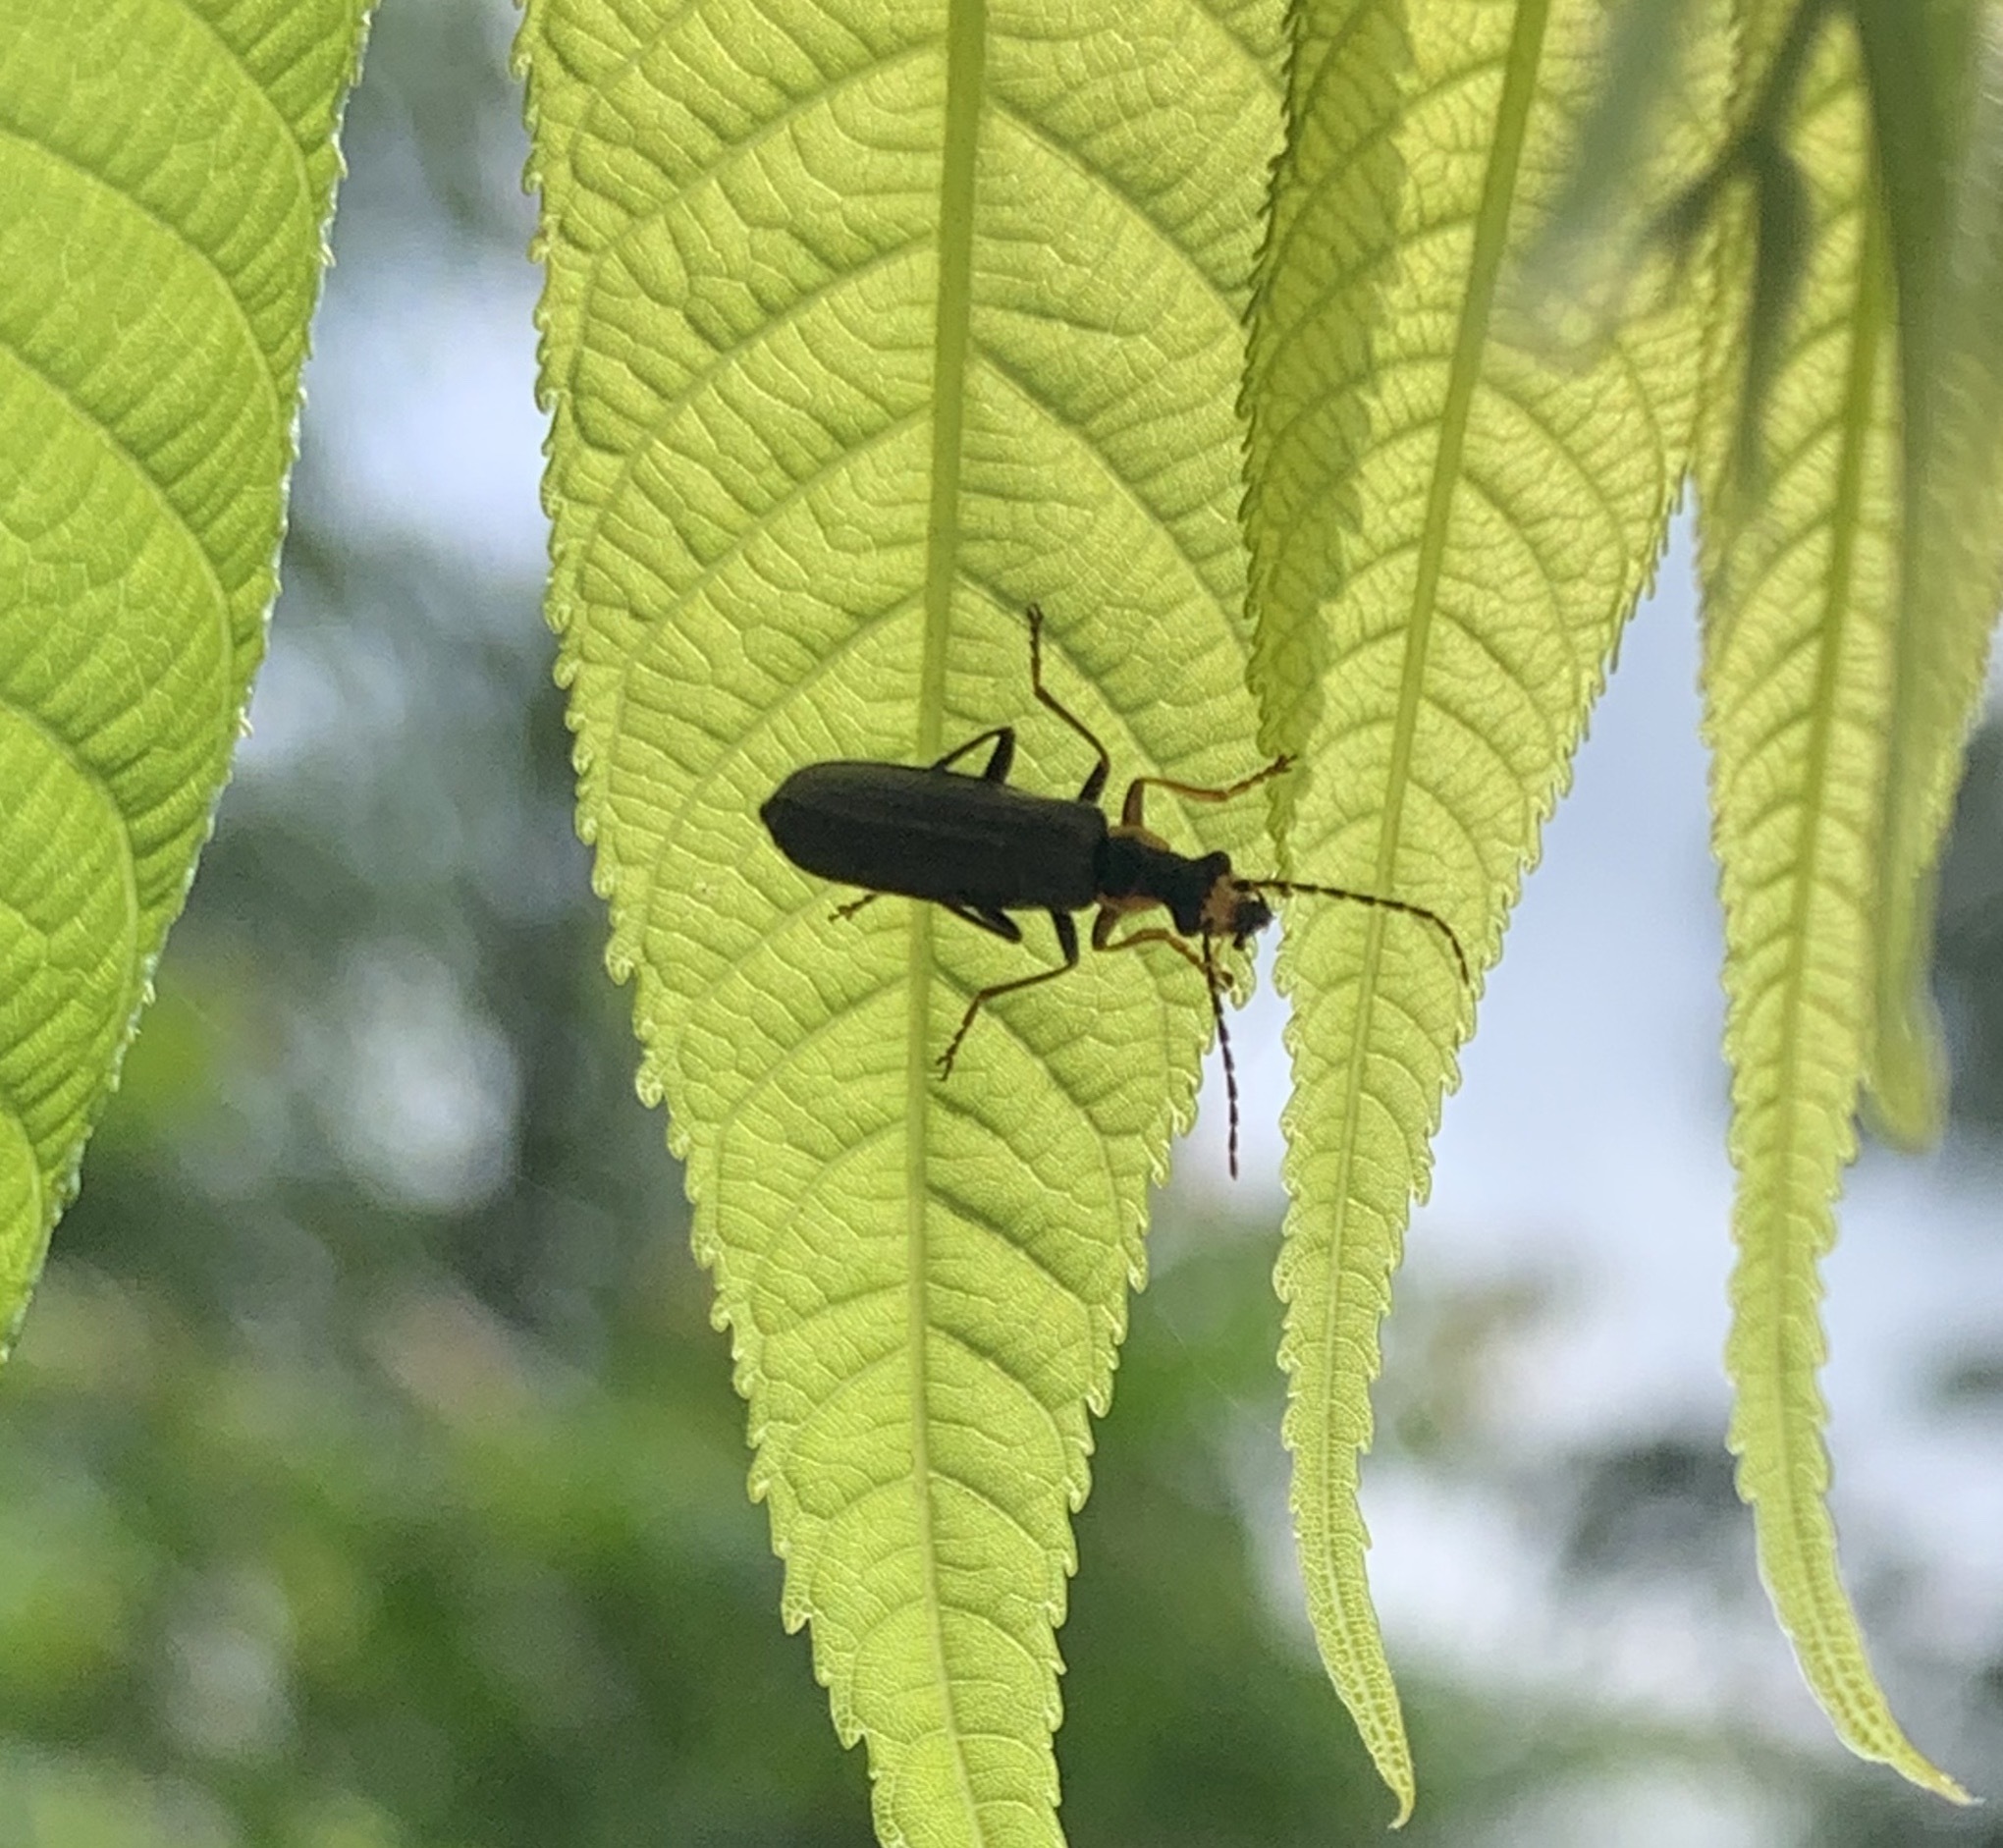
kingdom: Animalia
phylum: Arthropoda
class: Insecta
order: Coleoptera
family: Cantharidae
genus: Podabrus
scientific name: Podabrus rugosulus
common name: Wrinkled soldier beetle
